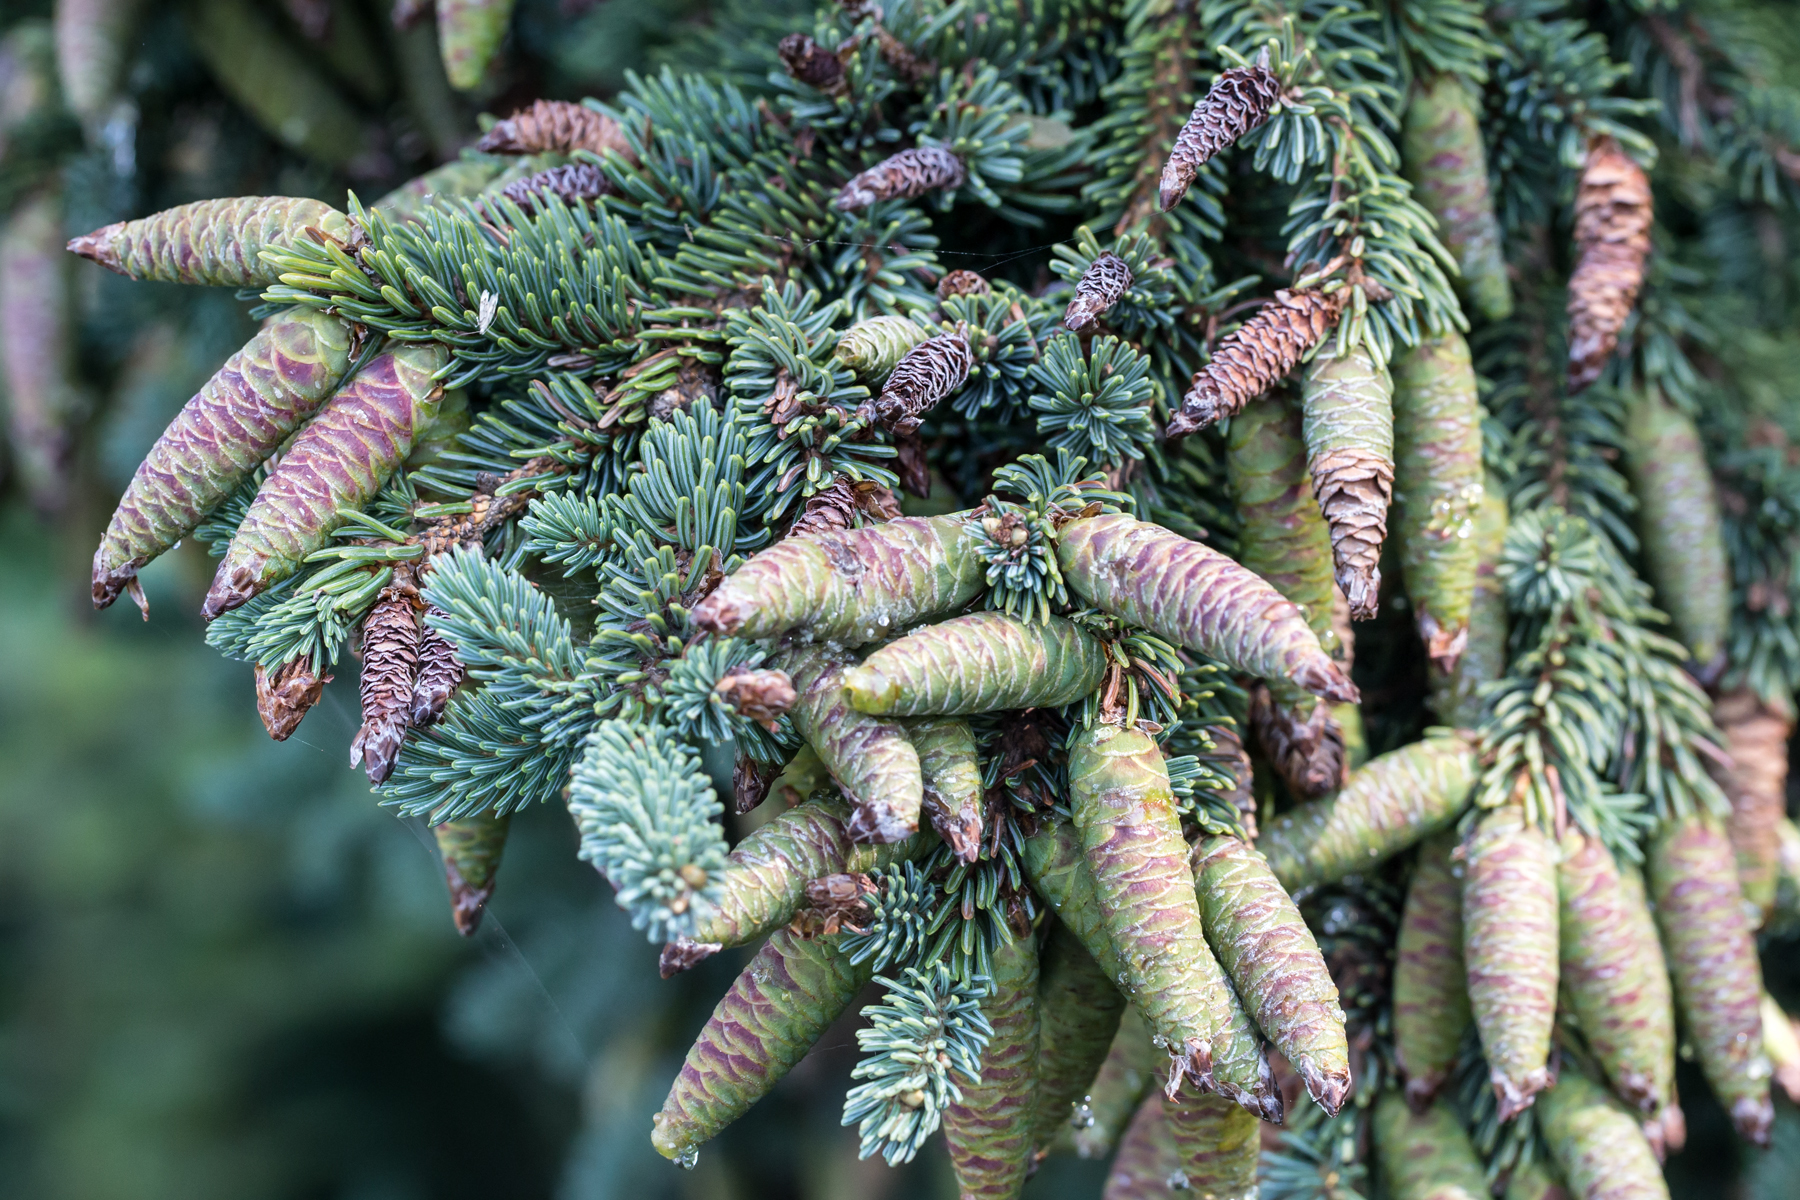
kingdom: Plantae
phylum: Tracheophyta
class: Pinopsida
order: Pinales
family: Pinaceae
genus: Picea
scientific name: Picea glauca
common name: White spruce
